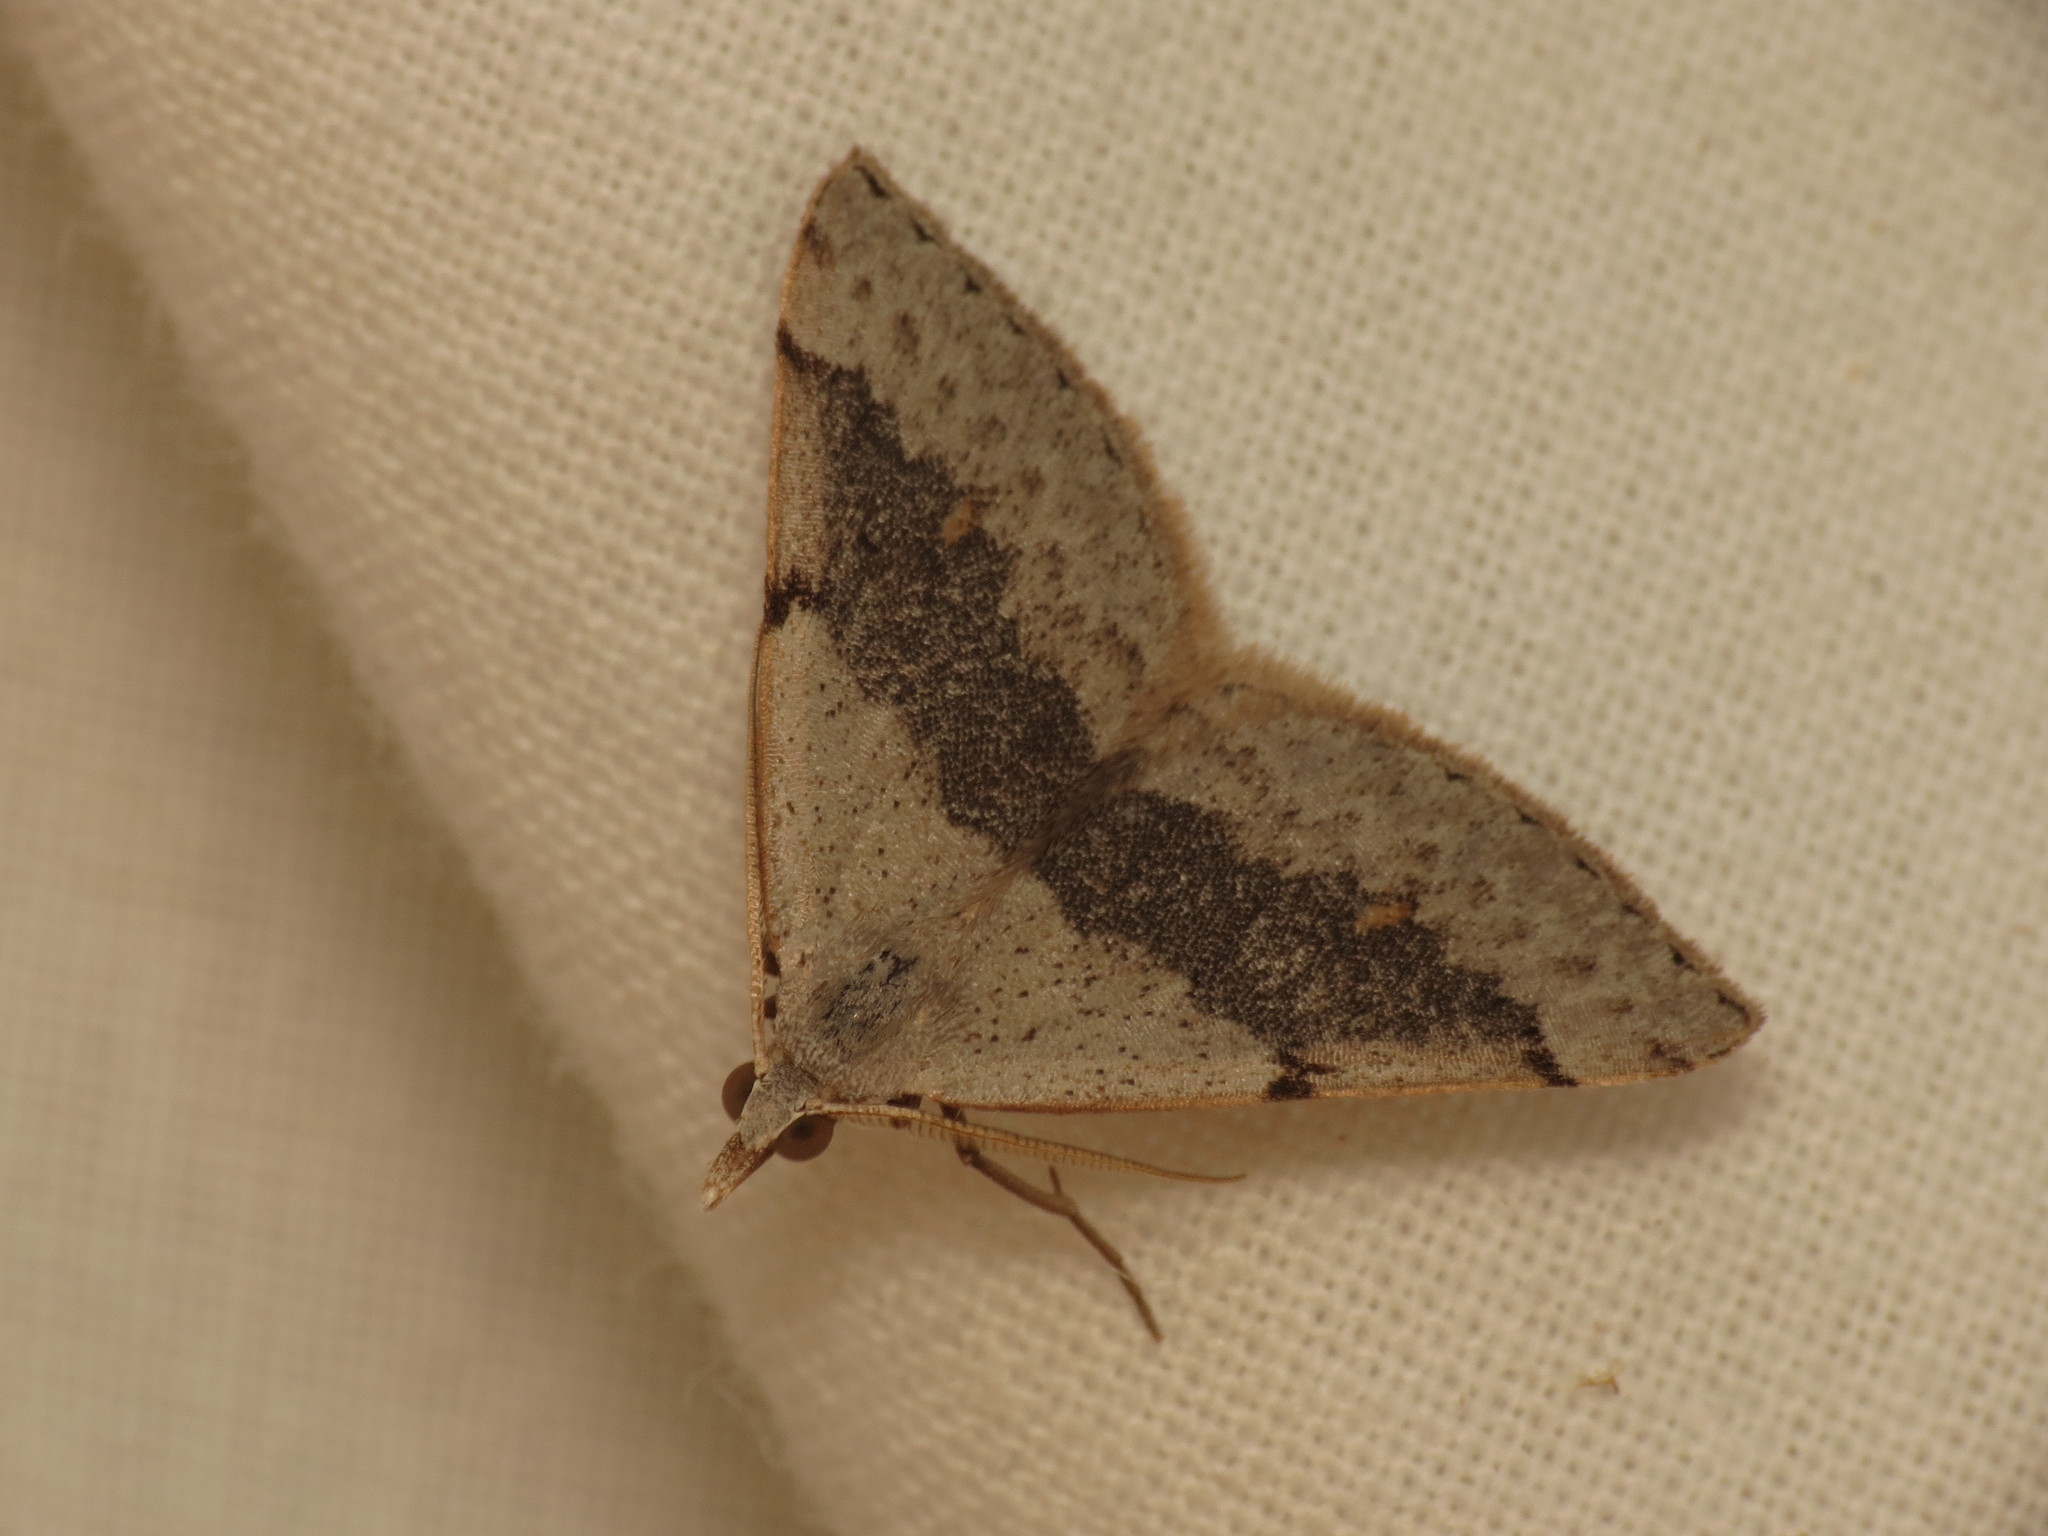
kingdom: Animalia
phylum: Arthropoda
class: Insecta
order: Lepidoptera
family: Geometridae
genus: Dichromodes
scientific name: Dichromodes molybdaria
